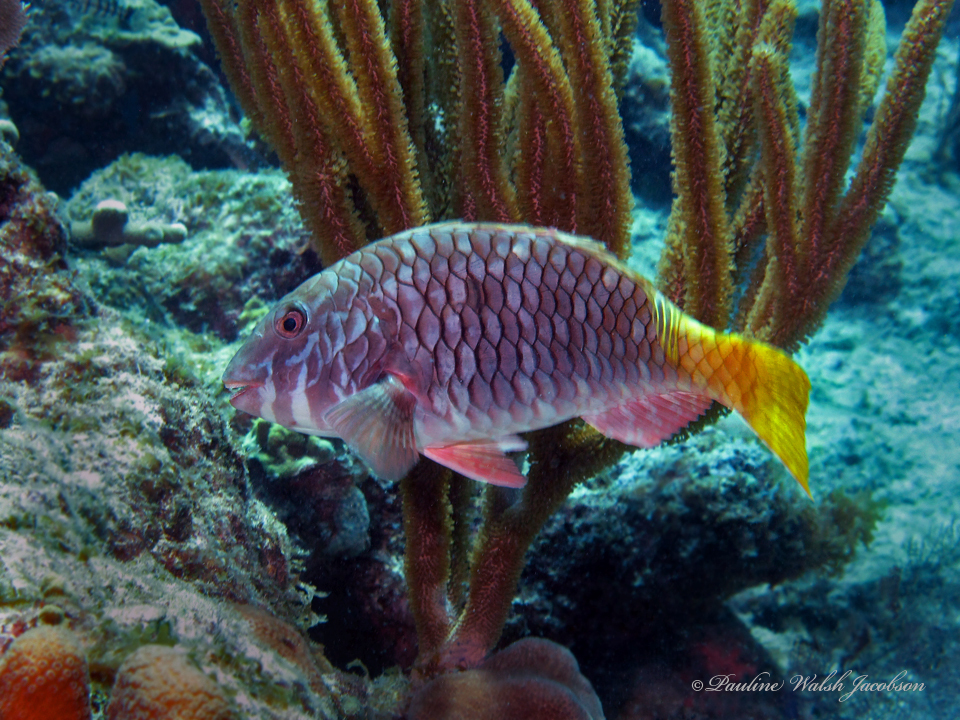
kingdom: Animalia
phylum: Chordata
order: Perciformes
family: Scaridae
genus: Sparisoma
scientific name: Sparisoma rubripinne
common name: Redfin parrotfish
